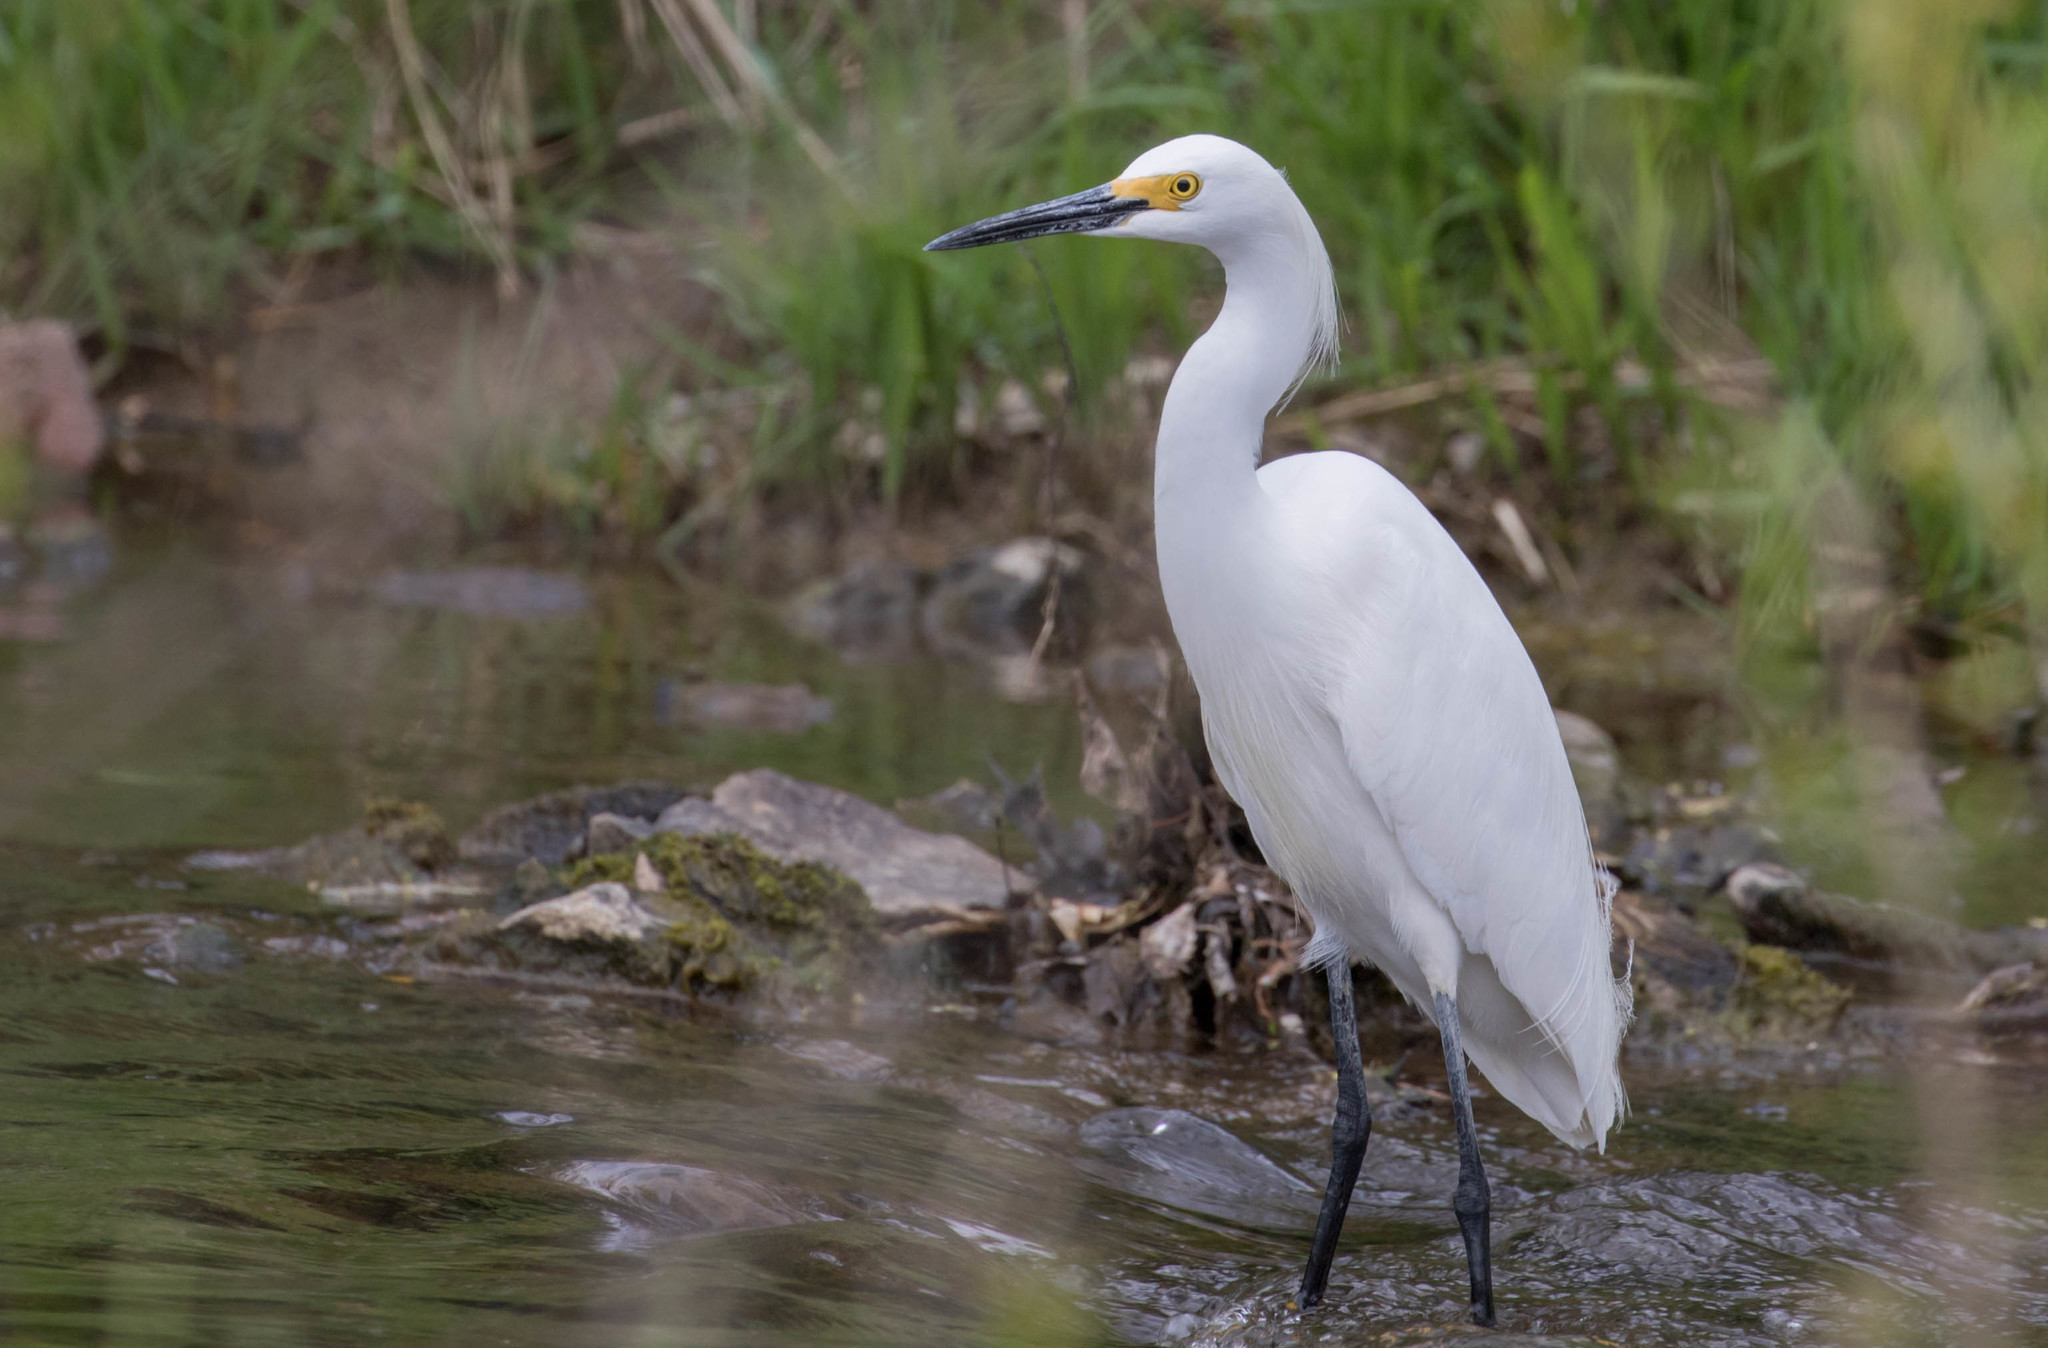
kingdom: Animalia
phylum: Chordata
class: Aves
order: Pelecaniformes
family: Ardeidae
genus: Egretta
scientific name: Egretta thula
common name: Snowy egret
